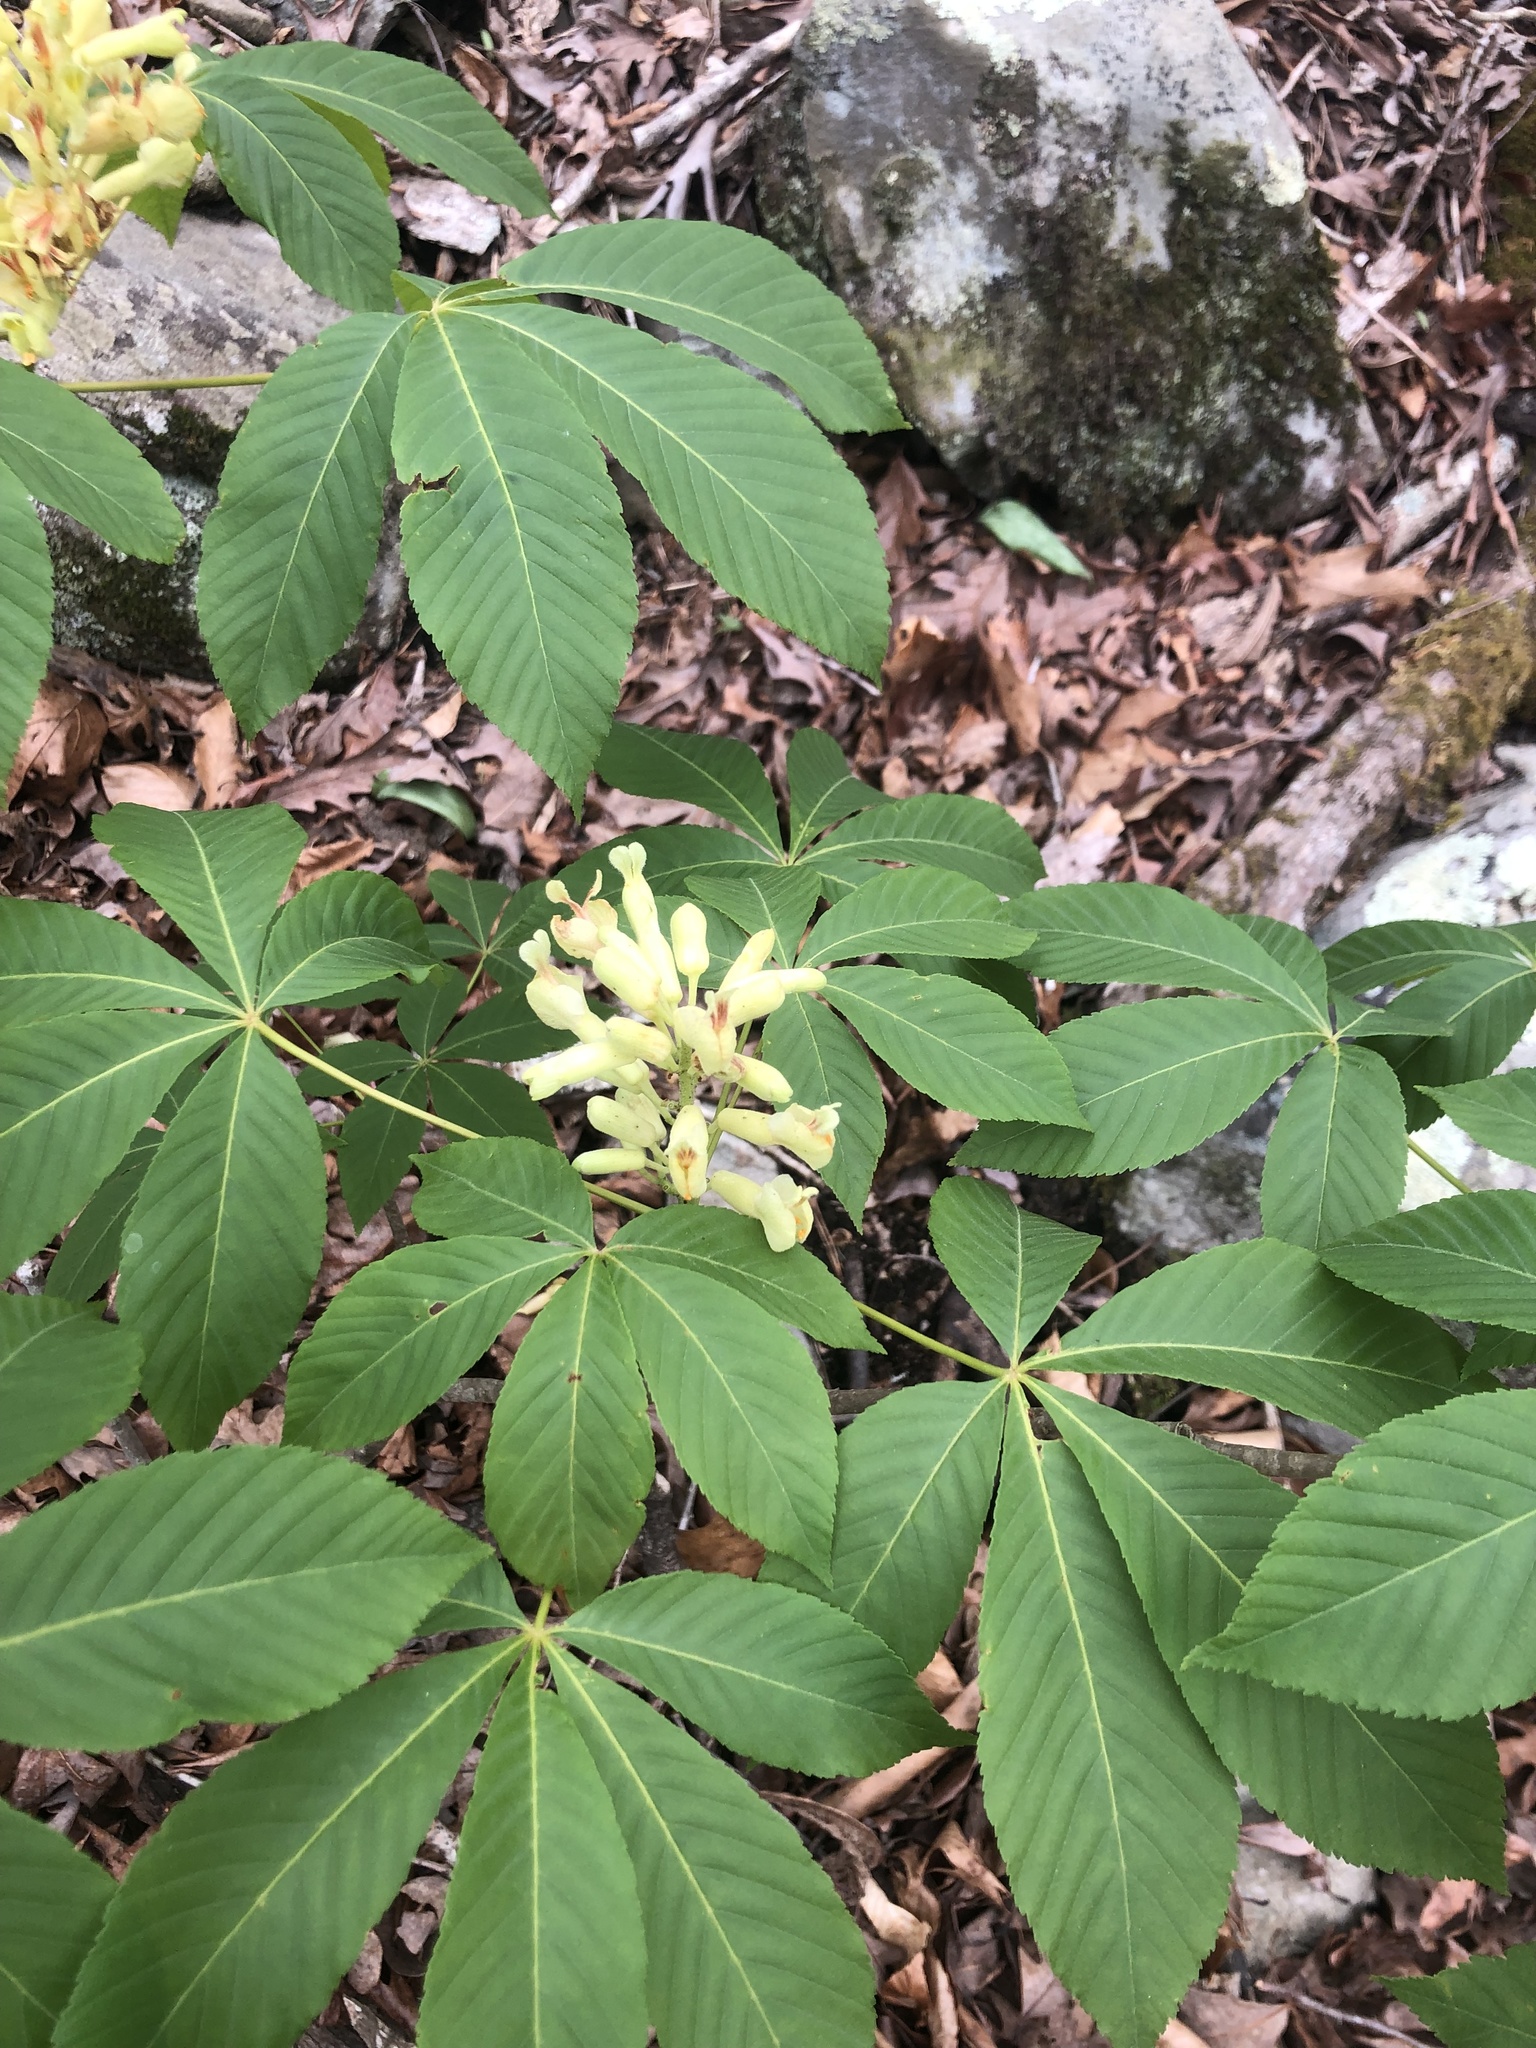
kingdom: Plantae
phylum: Tracheophyta
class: Magnoliopsida
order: Sapindales
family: Sapindaceae
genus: Aesculus
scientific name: Aesculus sylvatica
